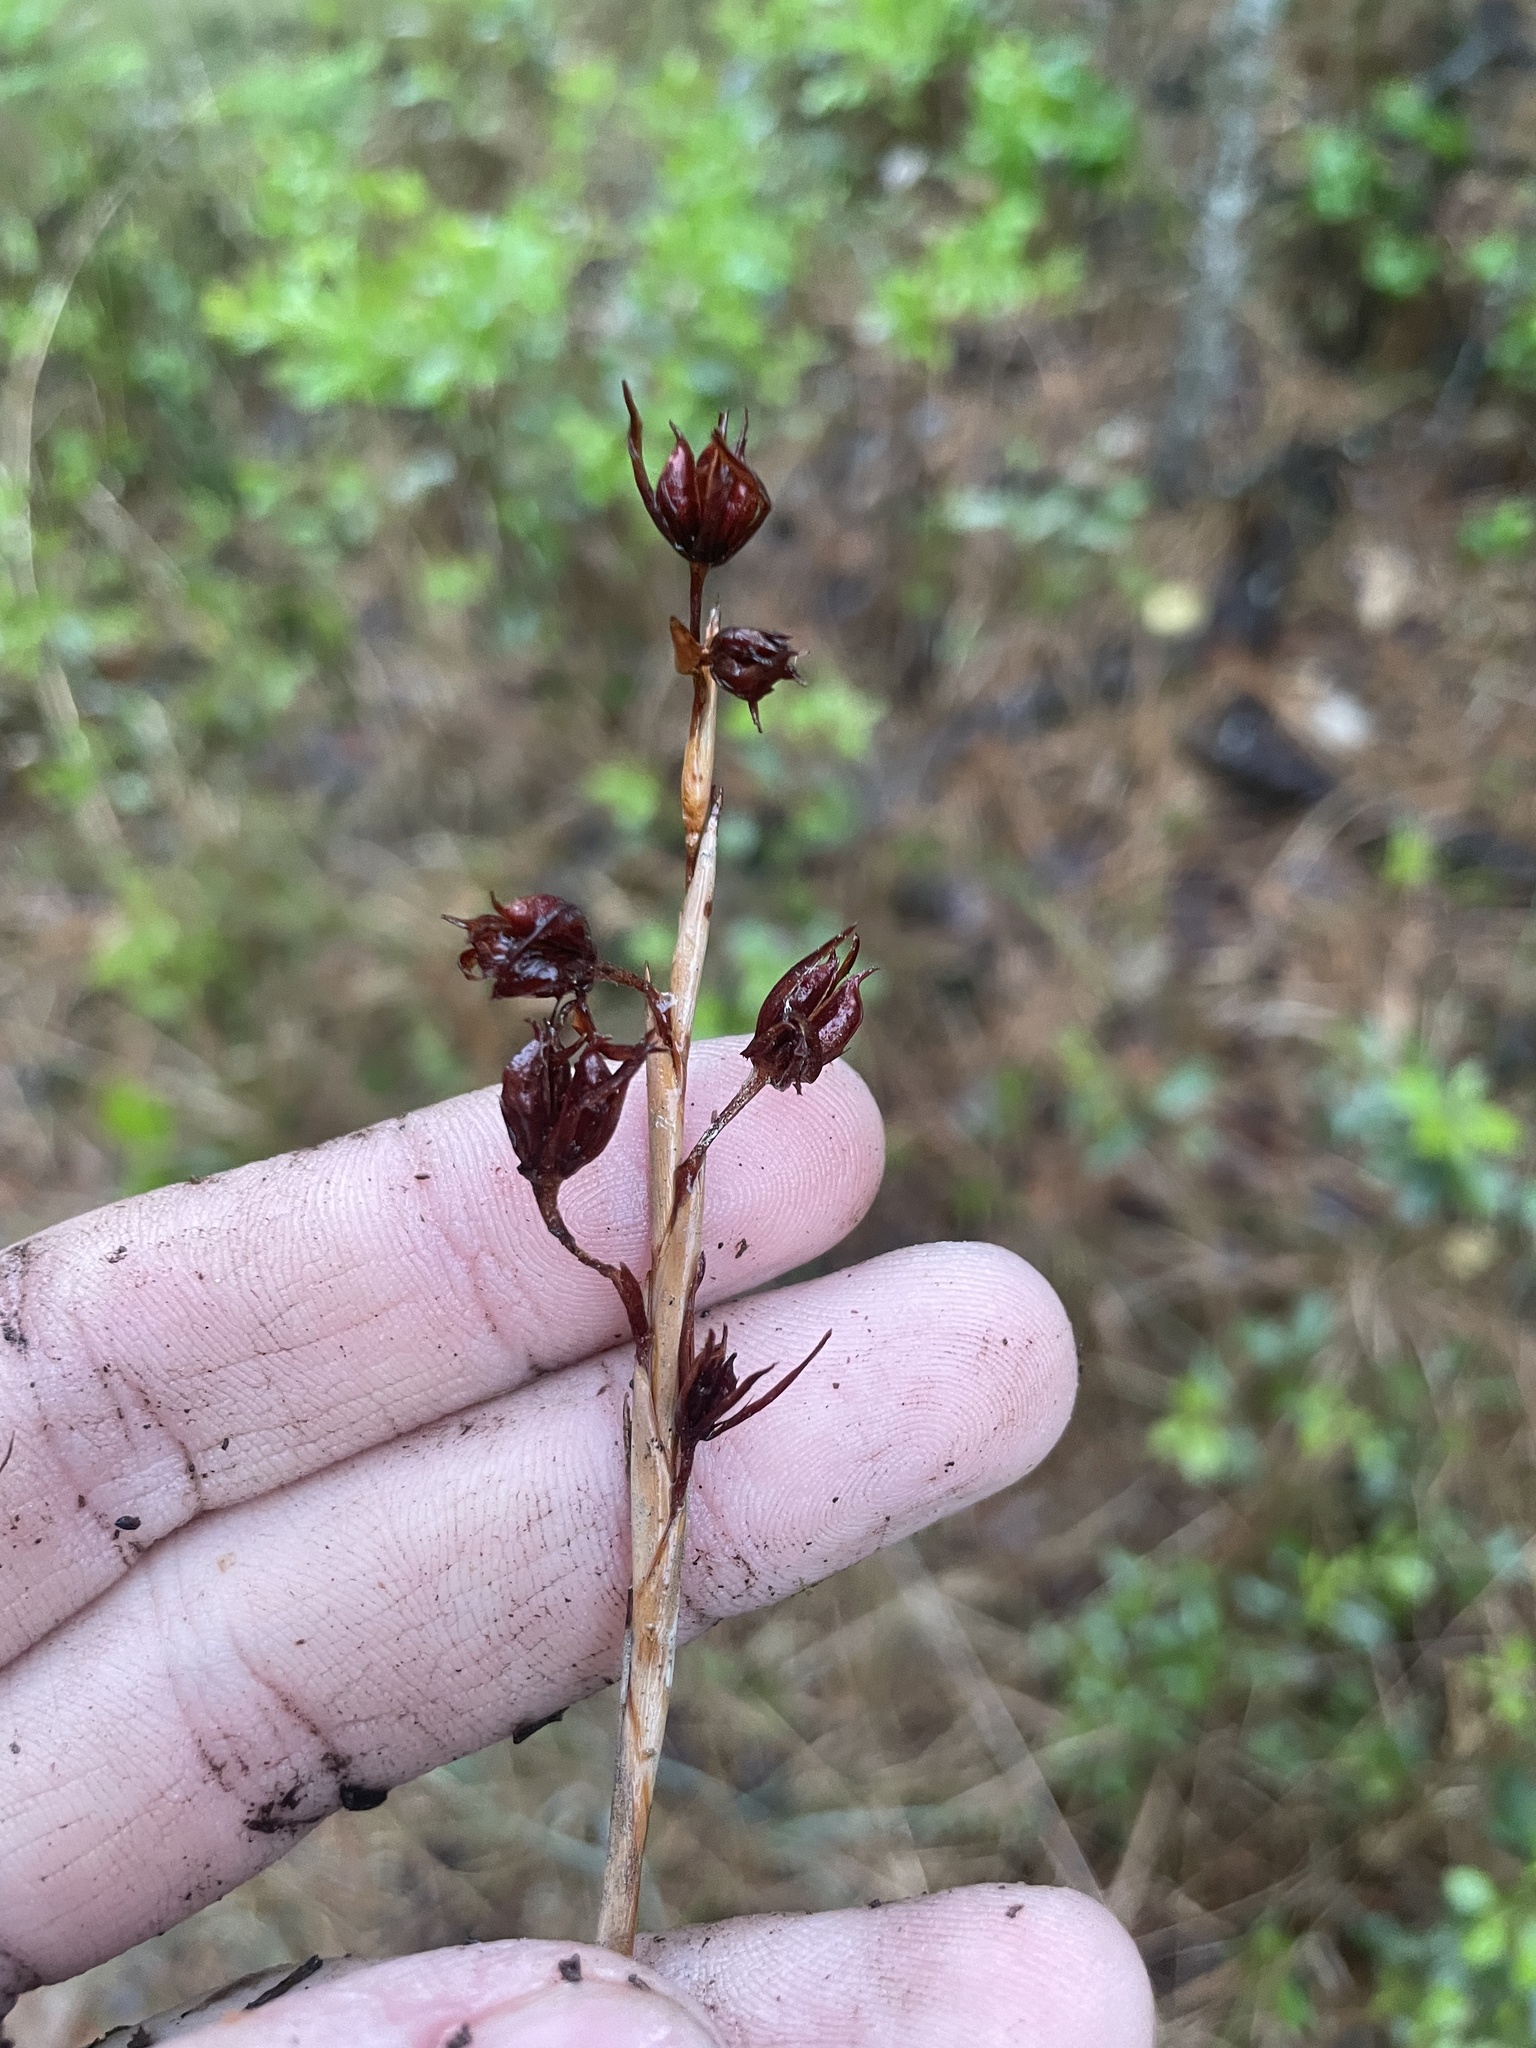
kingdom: Plantae
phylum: Tracheophyta
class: Liliopsida
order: Alismatales
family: Tofieldiaceae
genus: Pleea
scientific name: Pleea tenuifolia
